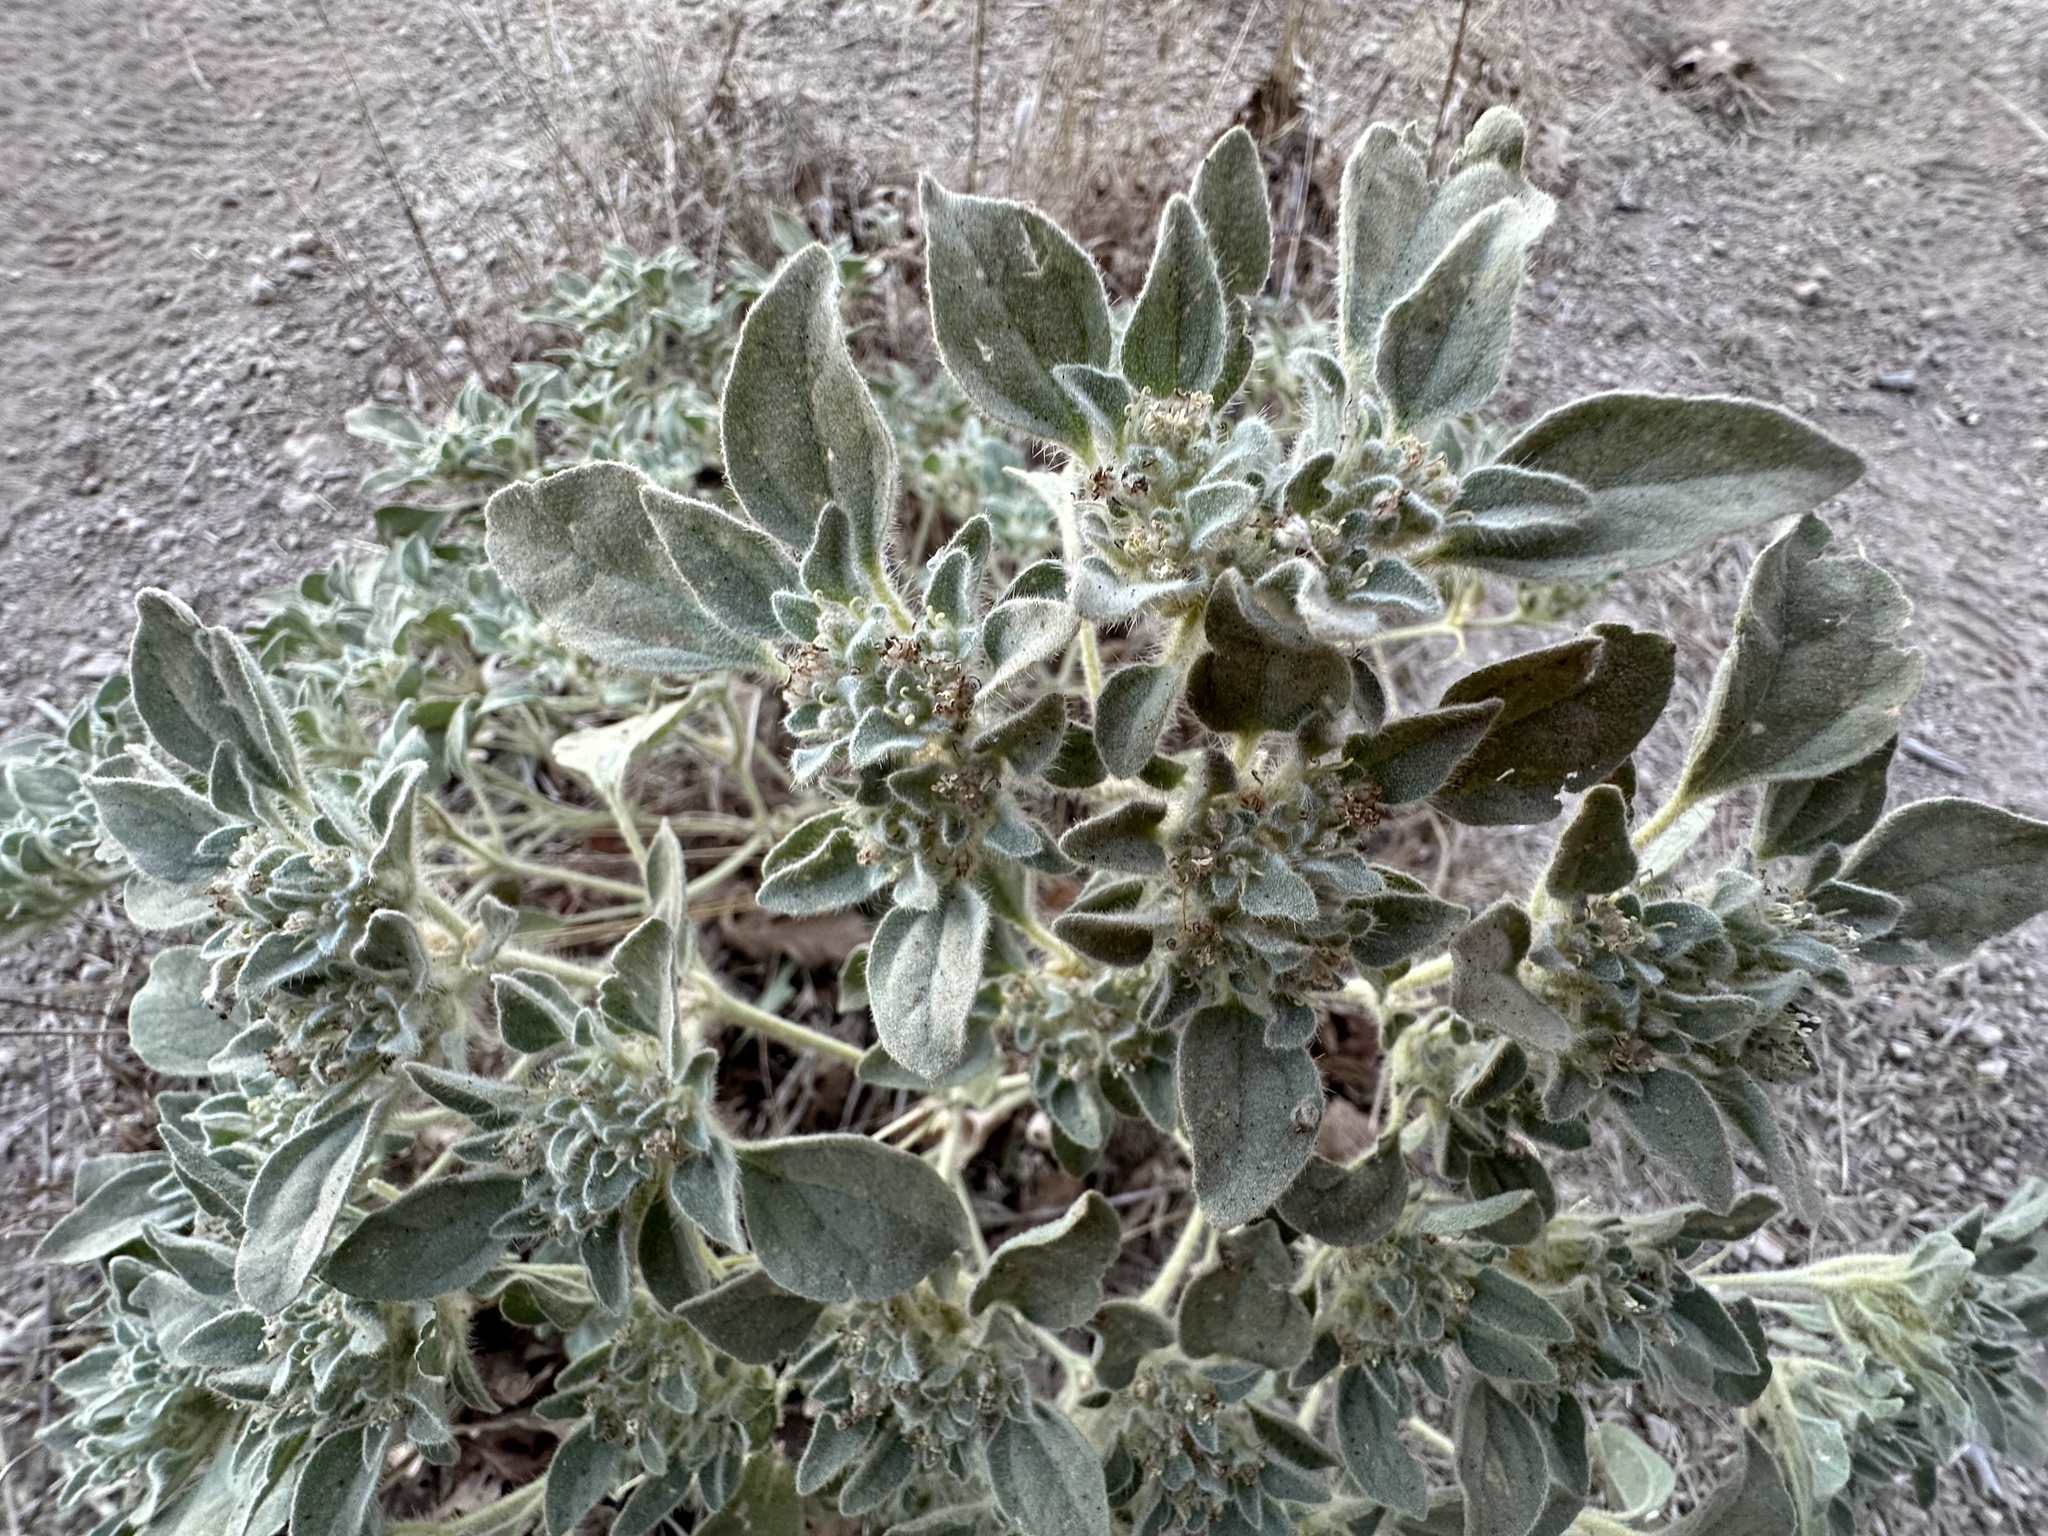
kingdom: Plantae
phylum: Tracheophyta
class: Magnoliopsida
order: Malpighiales
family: Euphorbiaceae
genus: Croton
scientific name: Croton setiger
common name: Dove weed
